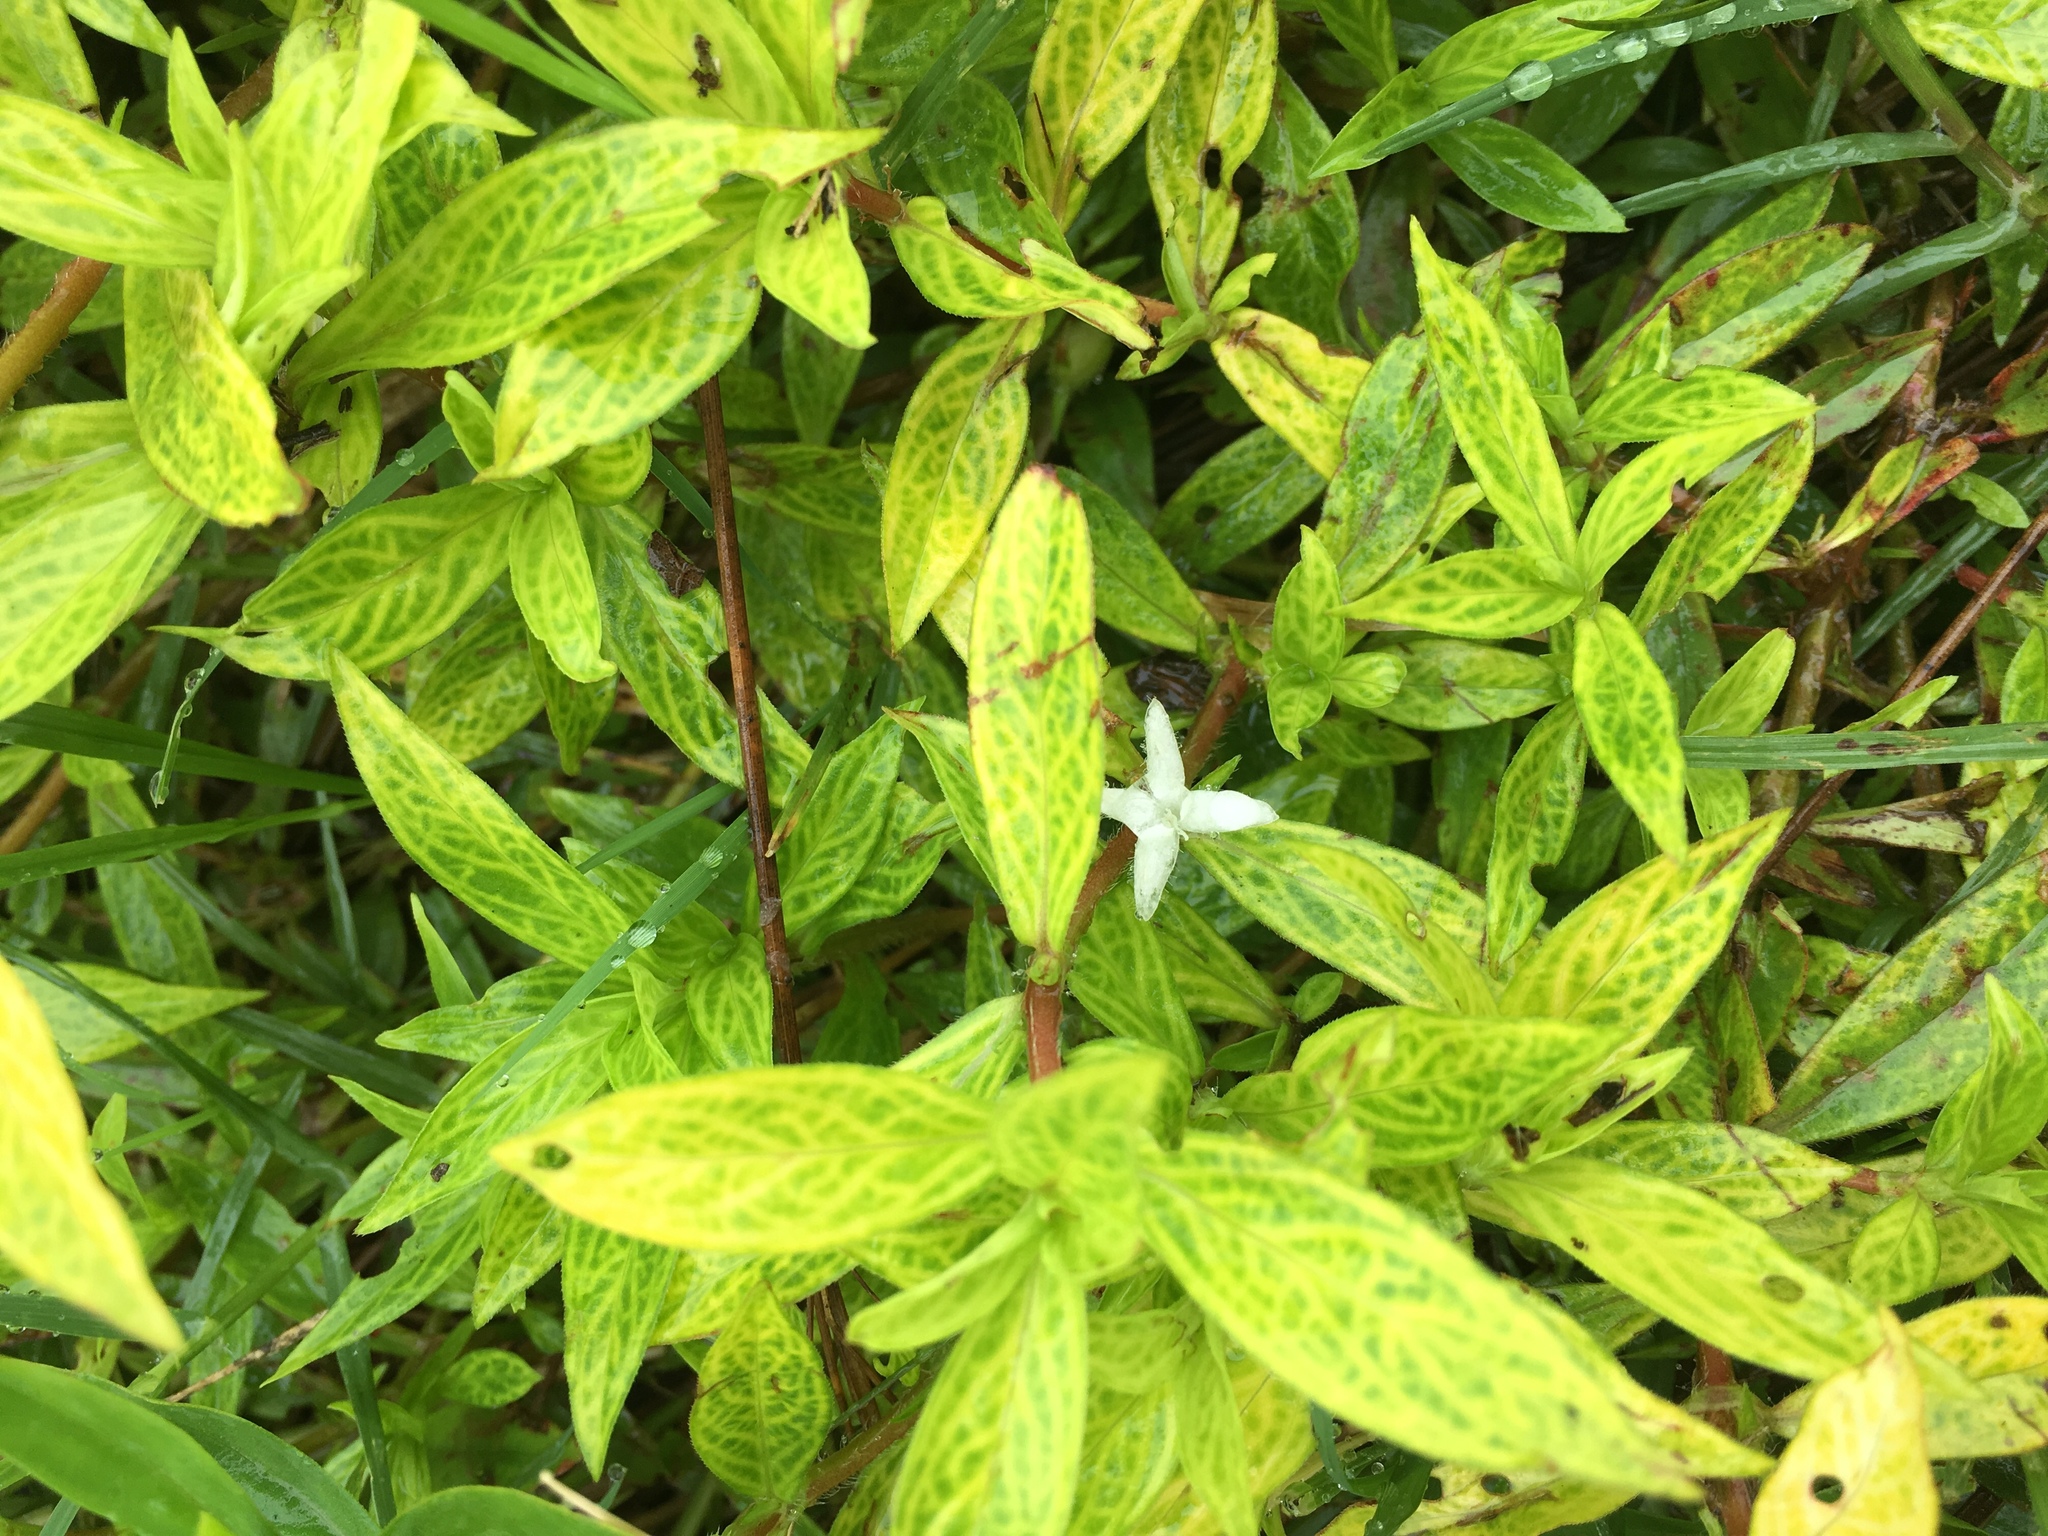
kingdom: Plantae
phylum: Tracheophyta
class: Magnoliopsida
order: Gentianales
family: Rubiaceae
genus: Diodia
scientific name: Diodia virginiana
